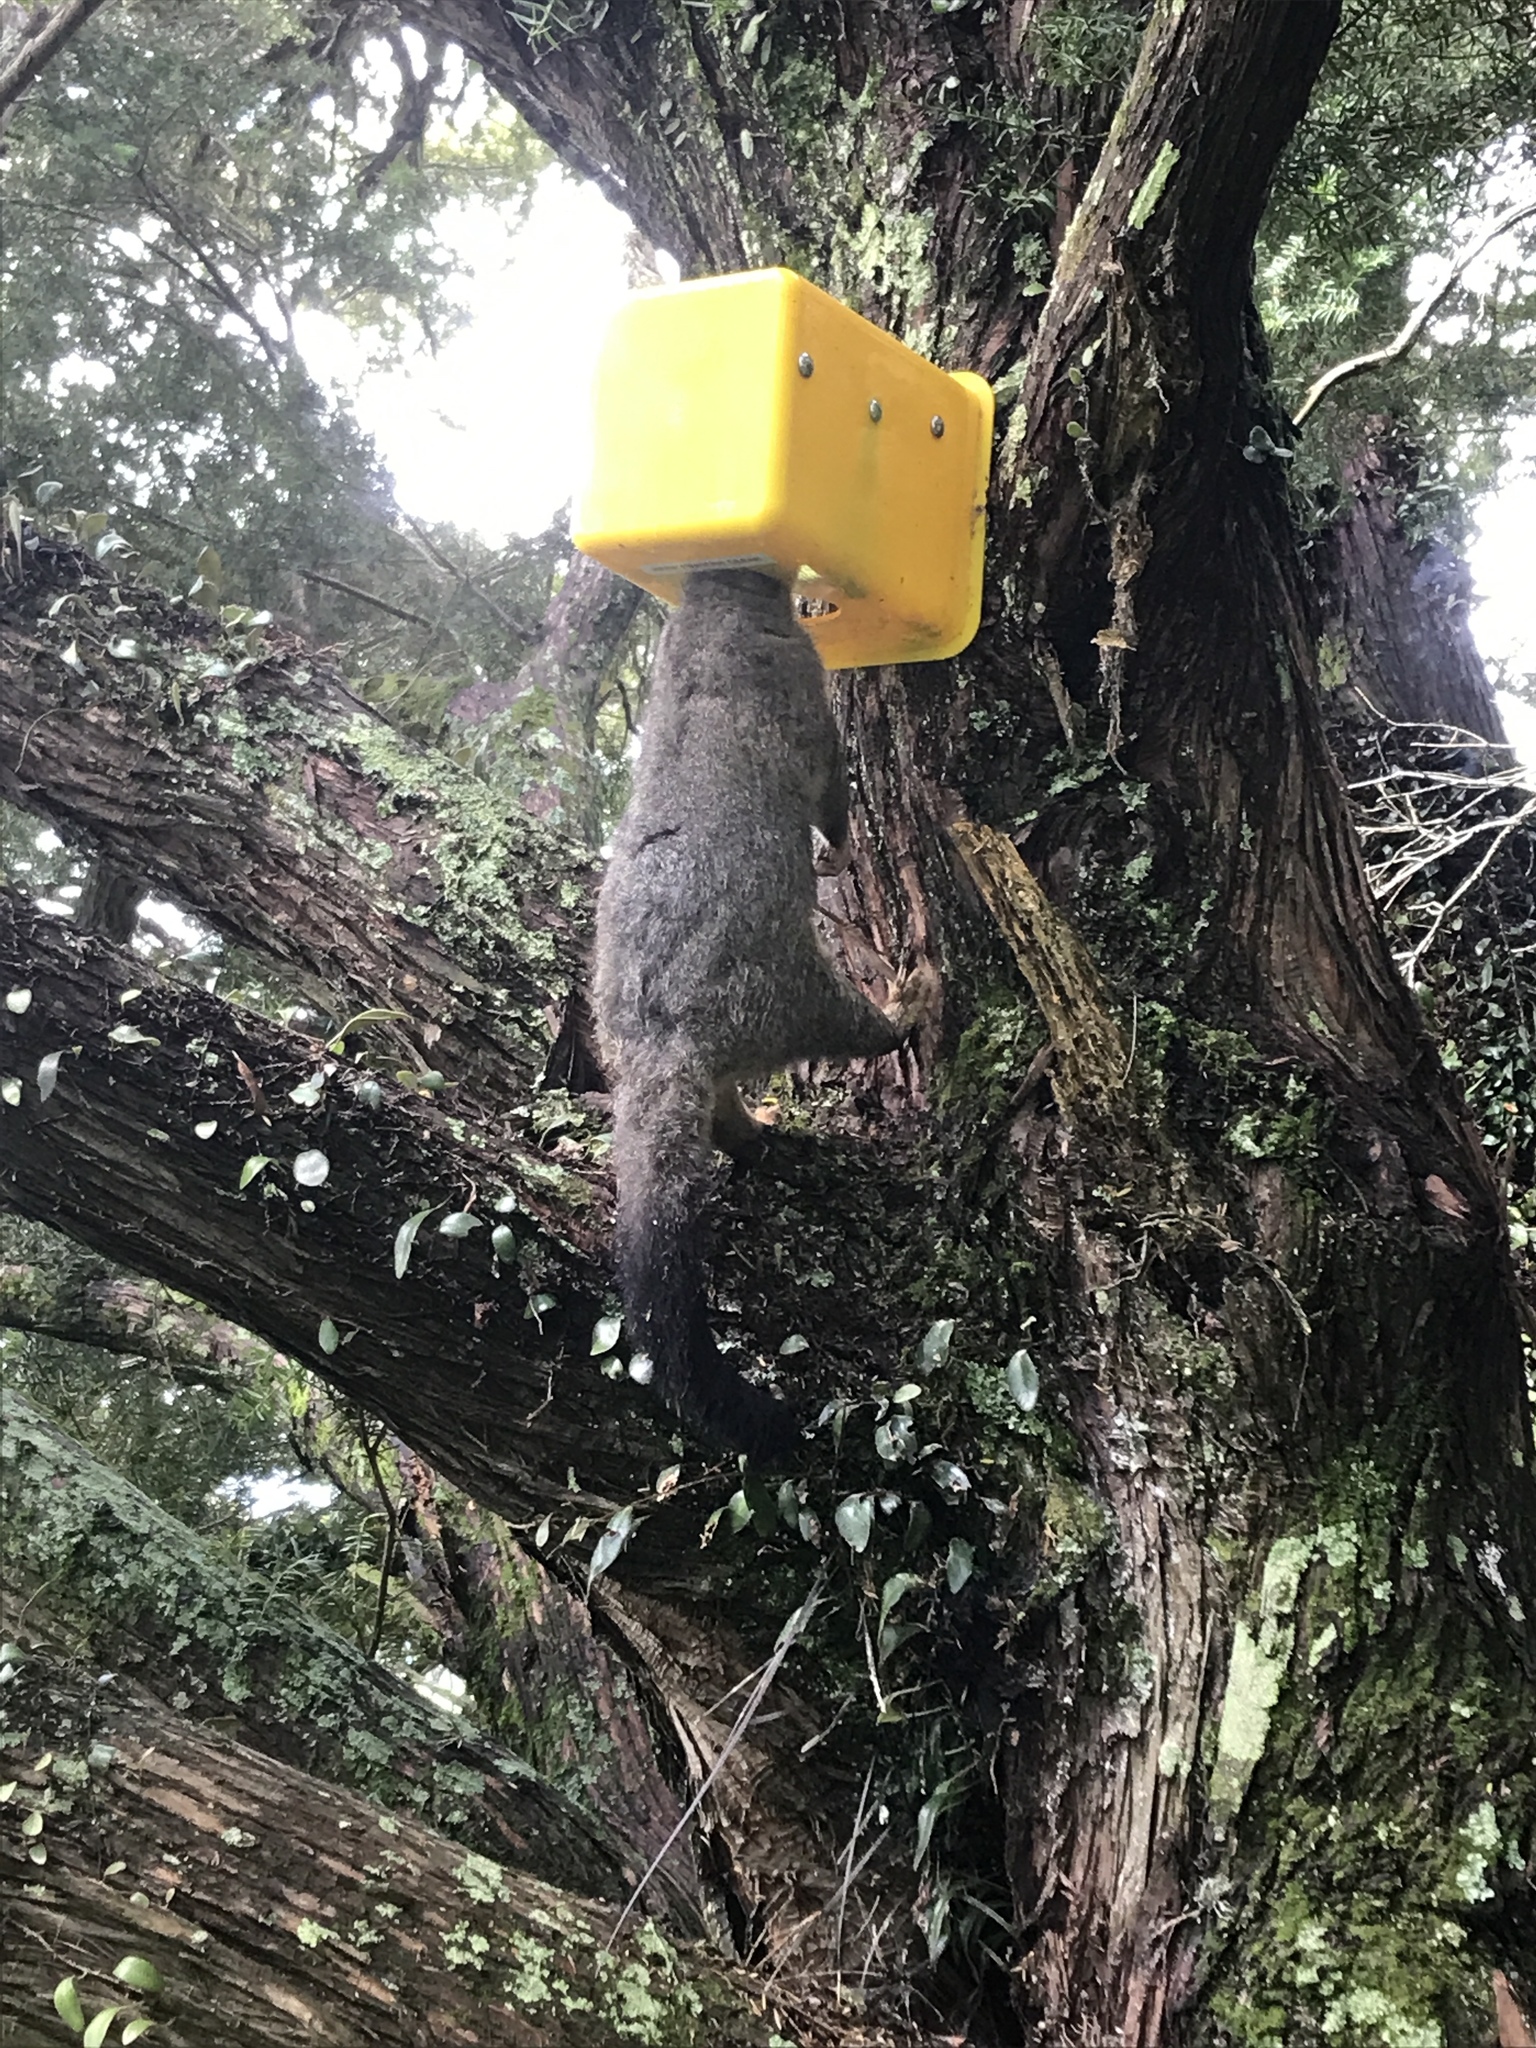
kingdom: Animalia
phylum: Chordata
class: Mammalia
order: Diprotodontia
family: Phalangeridae
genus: Trichosurus
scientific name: Trichosurus vulpecula
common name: Common brushtail
